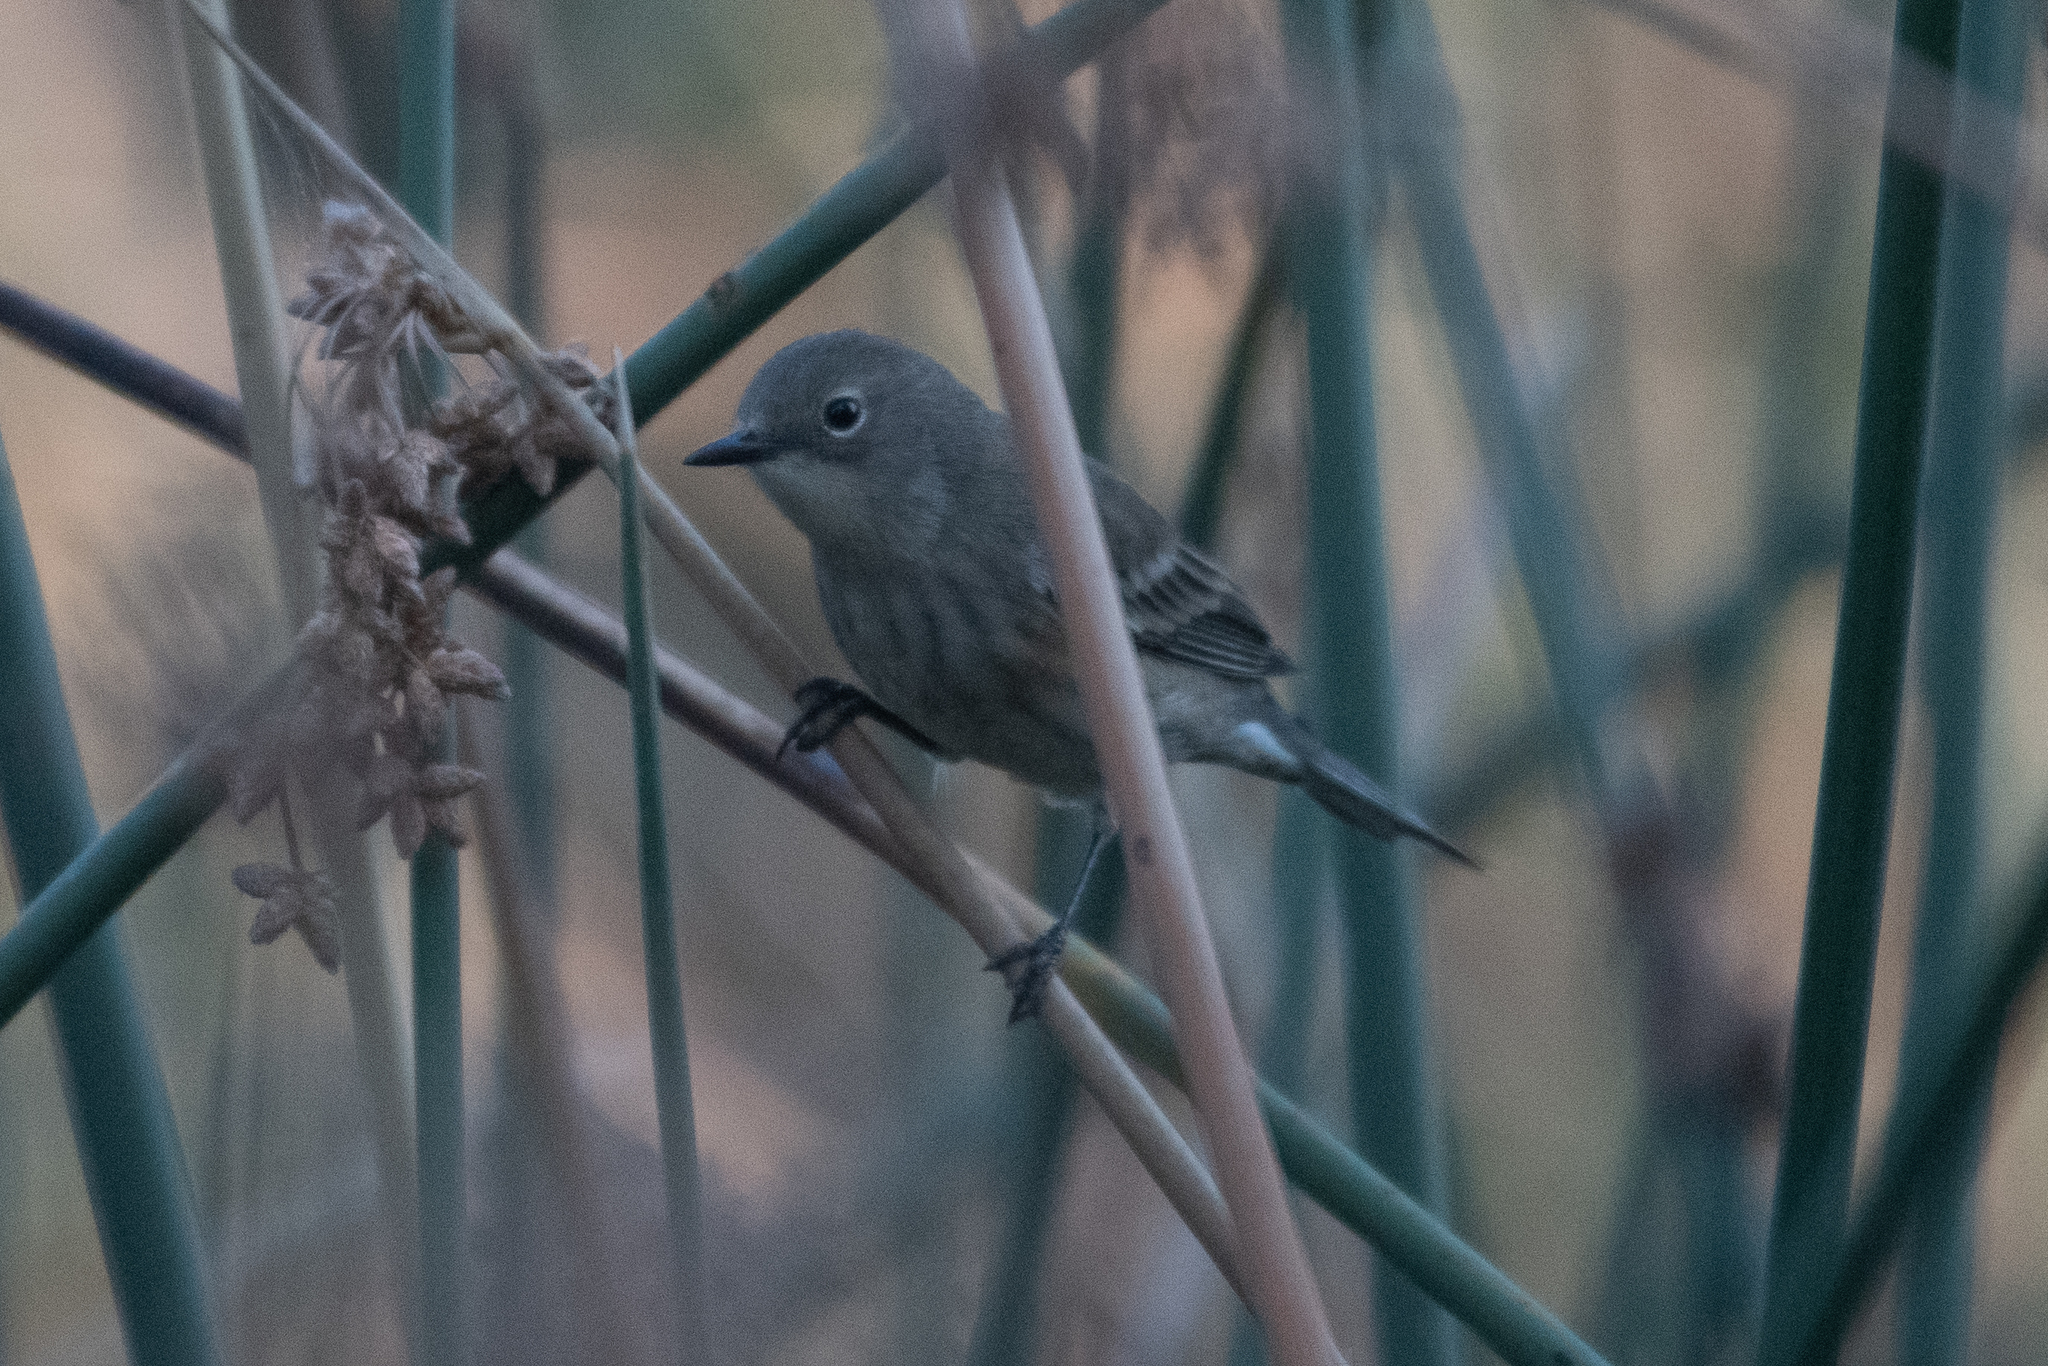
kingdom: Animalia
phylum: Chordata
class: Aves
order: Passeriformes
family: Parulidae
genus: Setophaga
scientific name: Setophaga coronata
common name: Myrtle warbler
